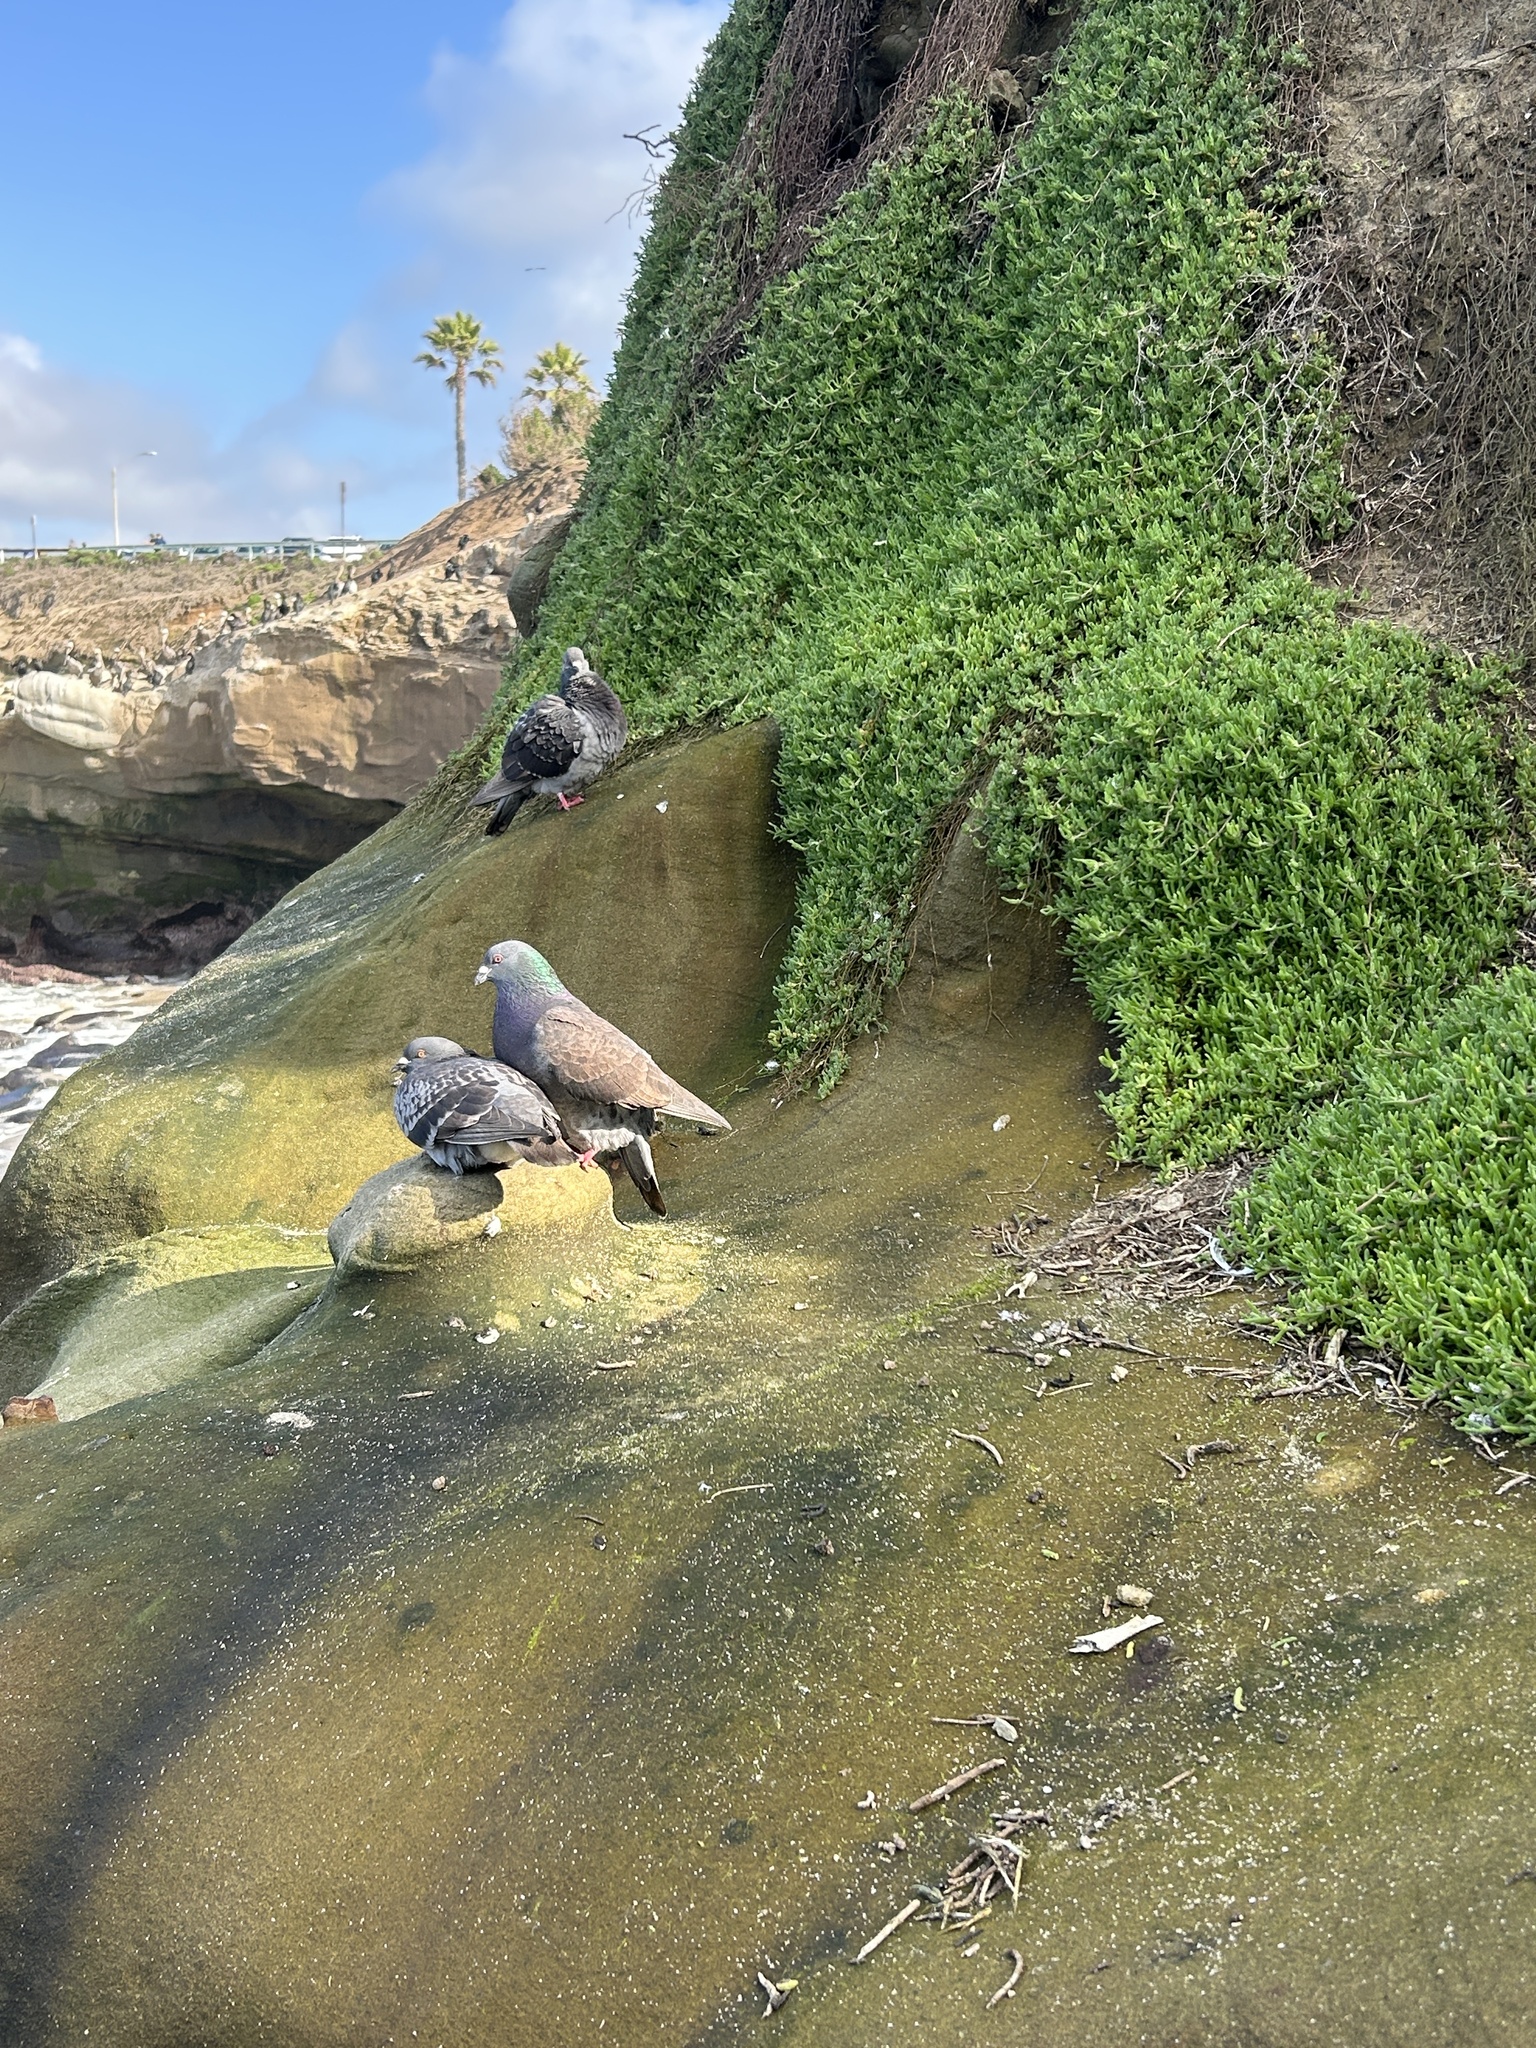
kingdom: Animalia
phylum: Chordata
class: Aves
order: Columbiformes
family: Columbidae
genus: Columba
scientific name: Columba livia
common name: Rock pigeon
